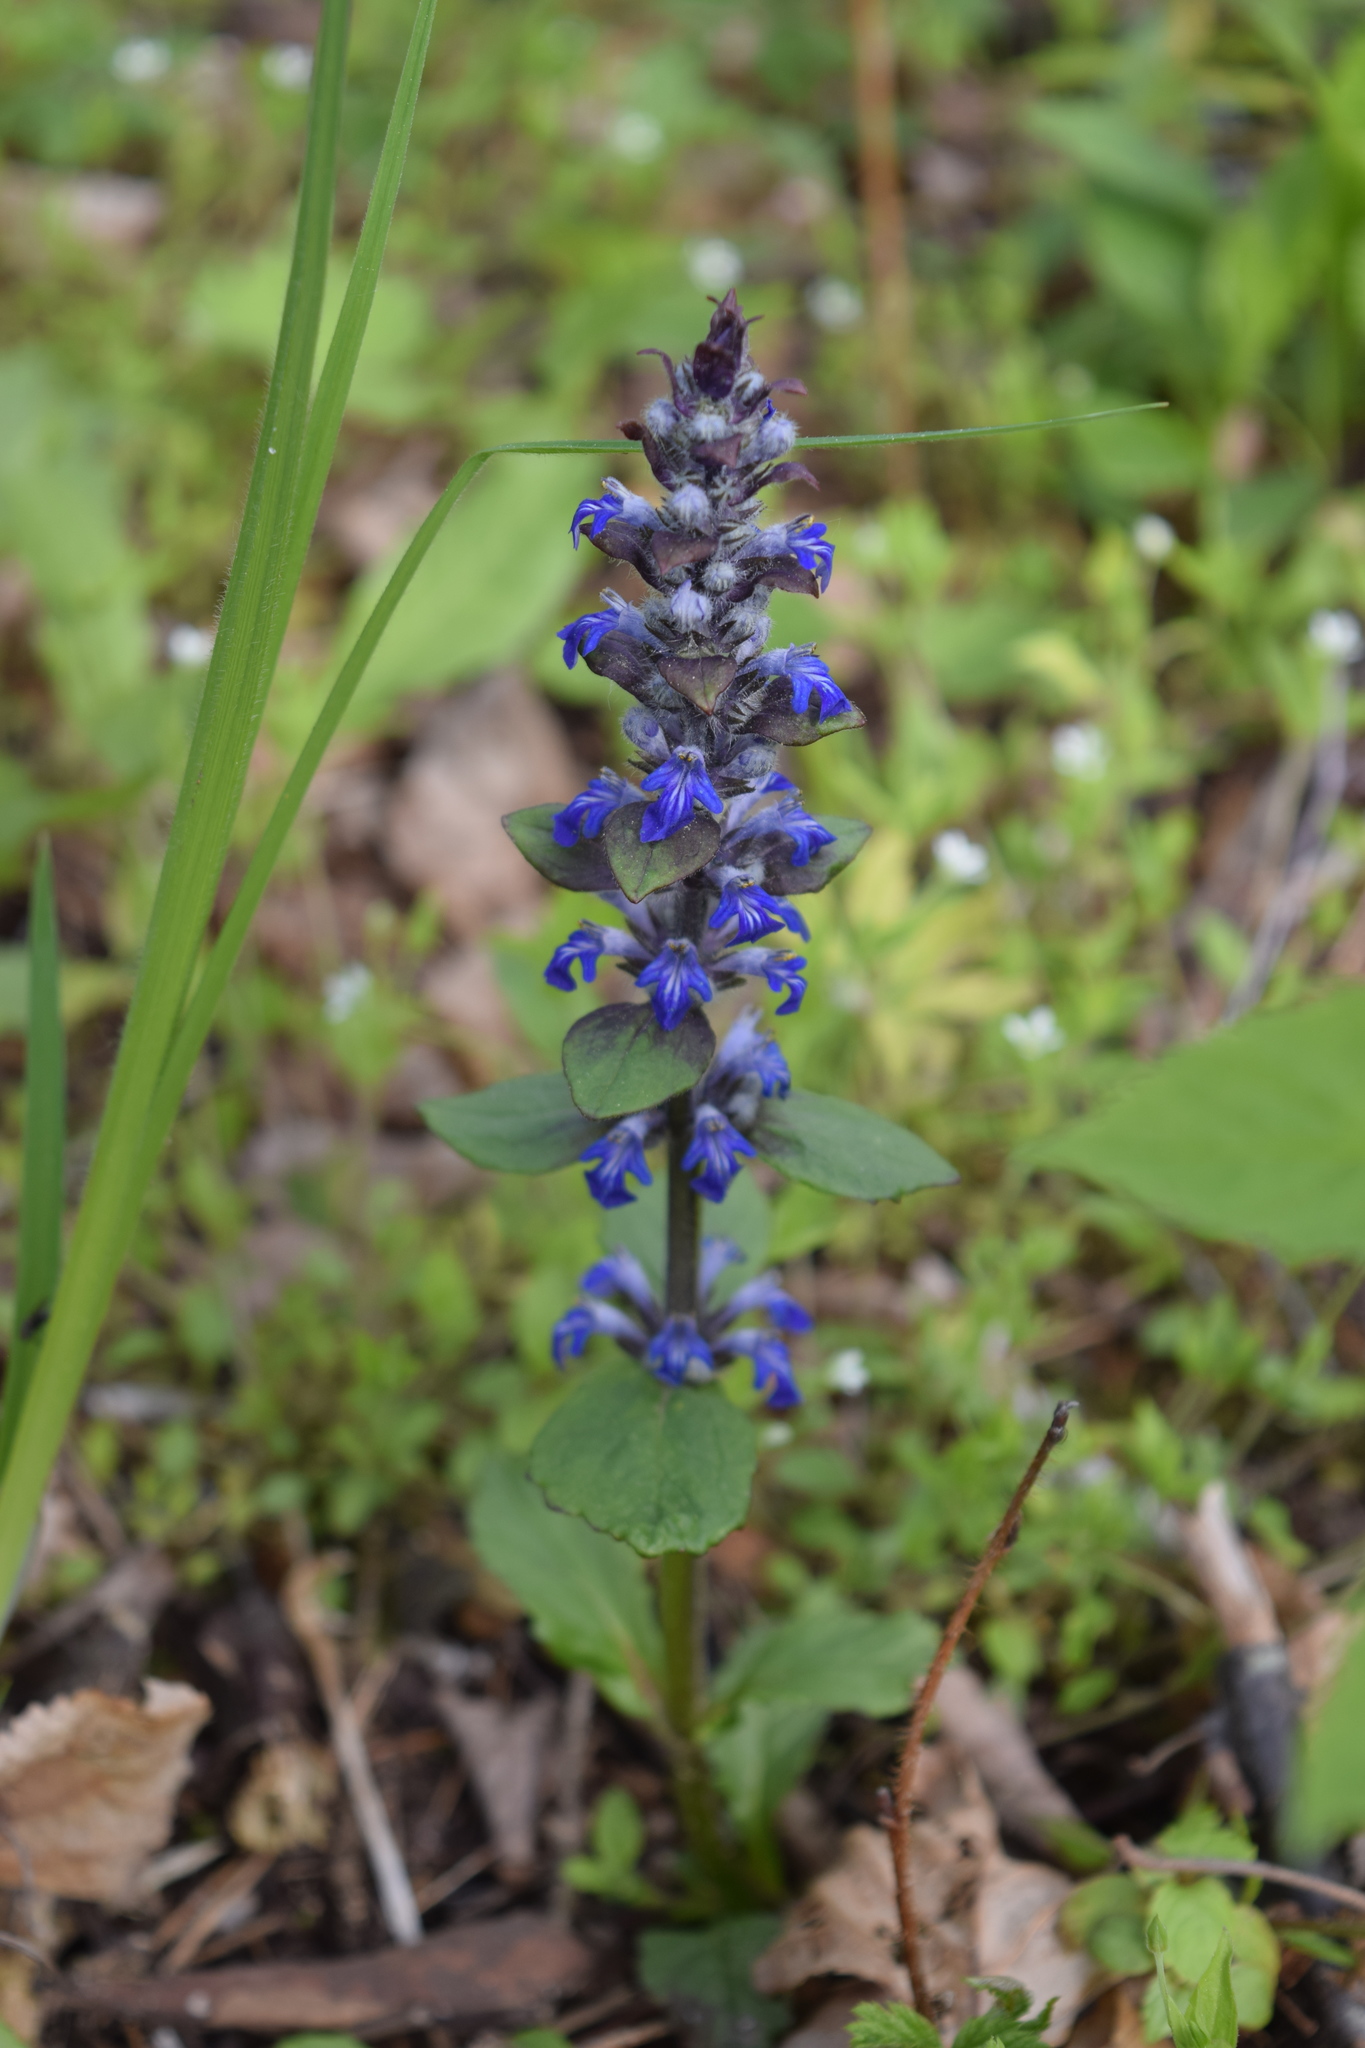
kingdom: Plantae
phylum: Tracheophyta
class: Magnoliopsida
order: Lamiales
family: Lamiaceae
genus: Ajuga
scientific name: Ajuga reptans
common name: Bugle
